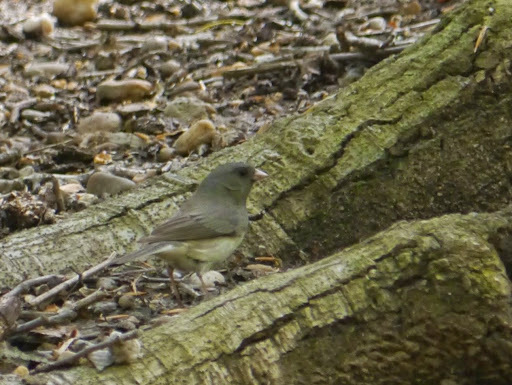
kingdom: Animalia
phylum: Chordata
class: Aves
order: Passeriformes
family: Passerellidae
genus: Junco
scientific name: Junco hyemalis
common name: Dark-eyed junco
